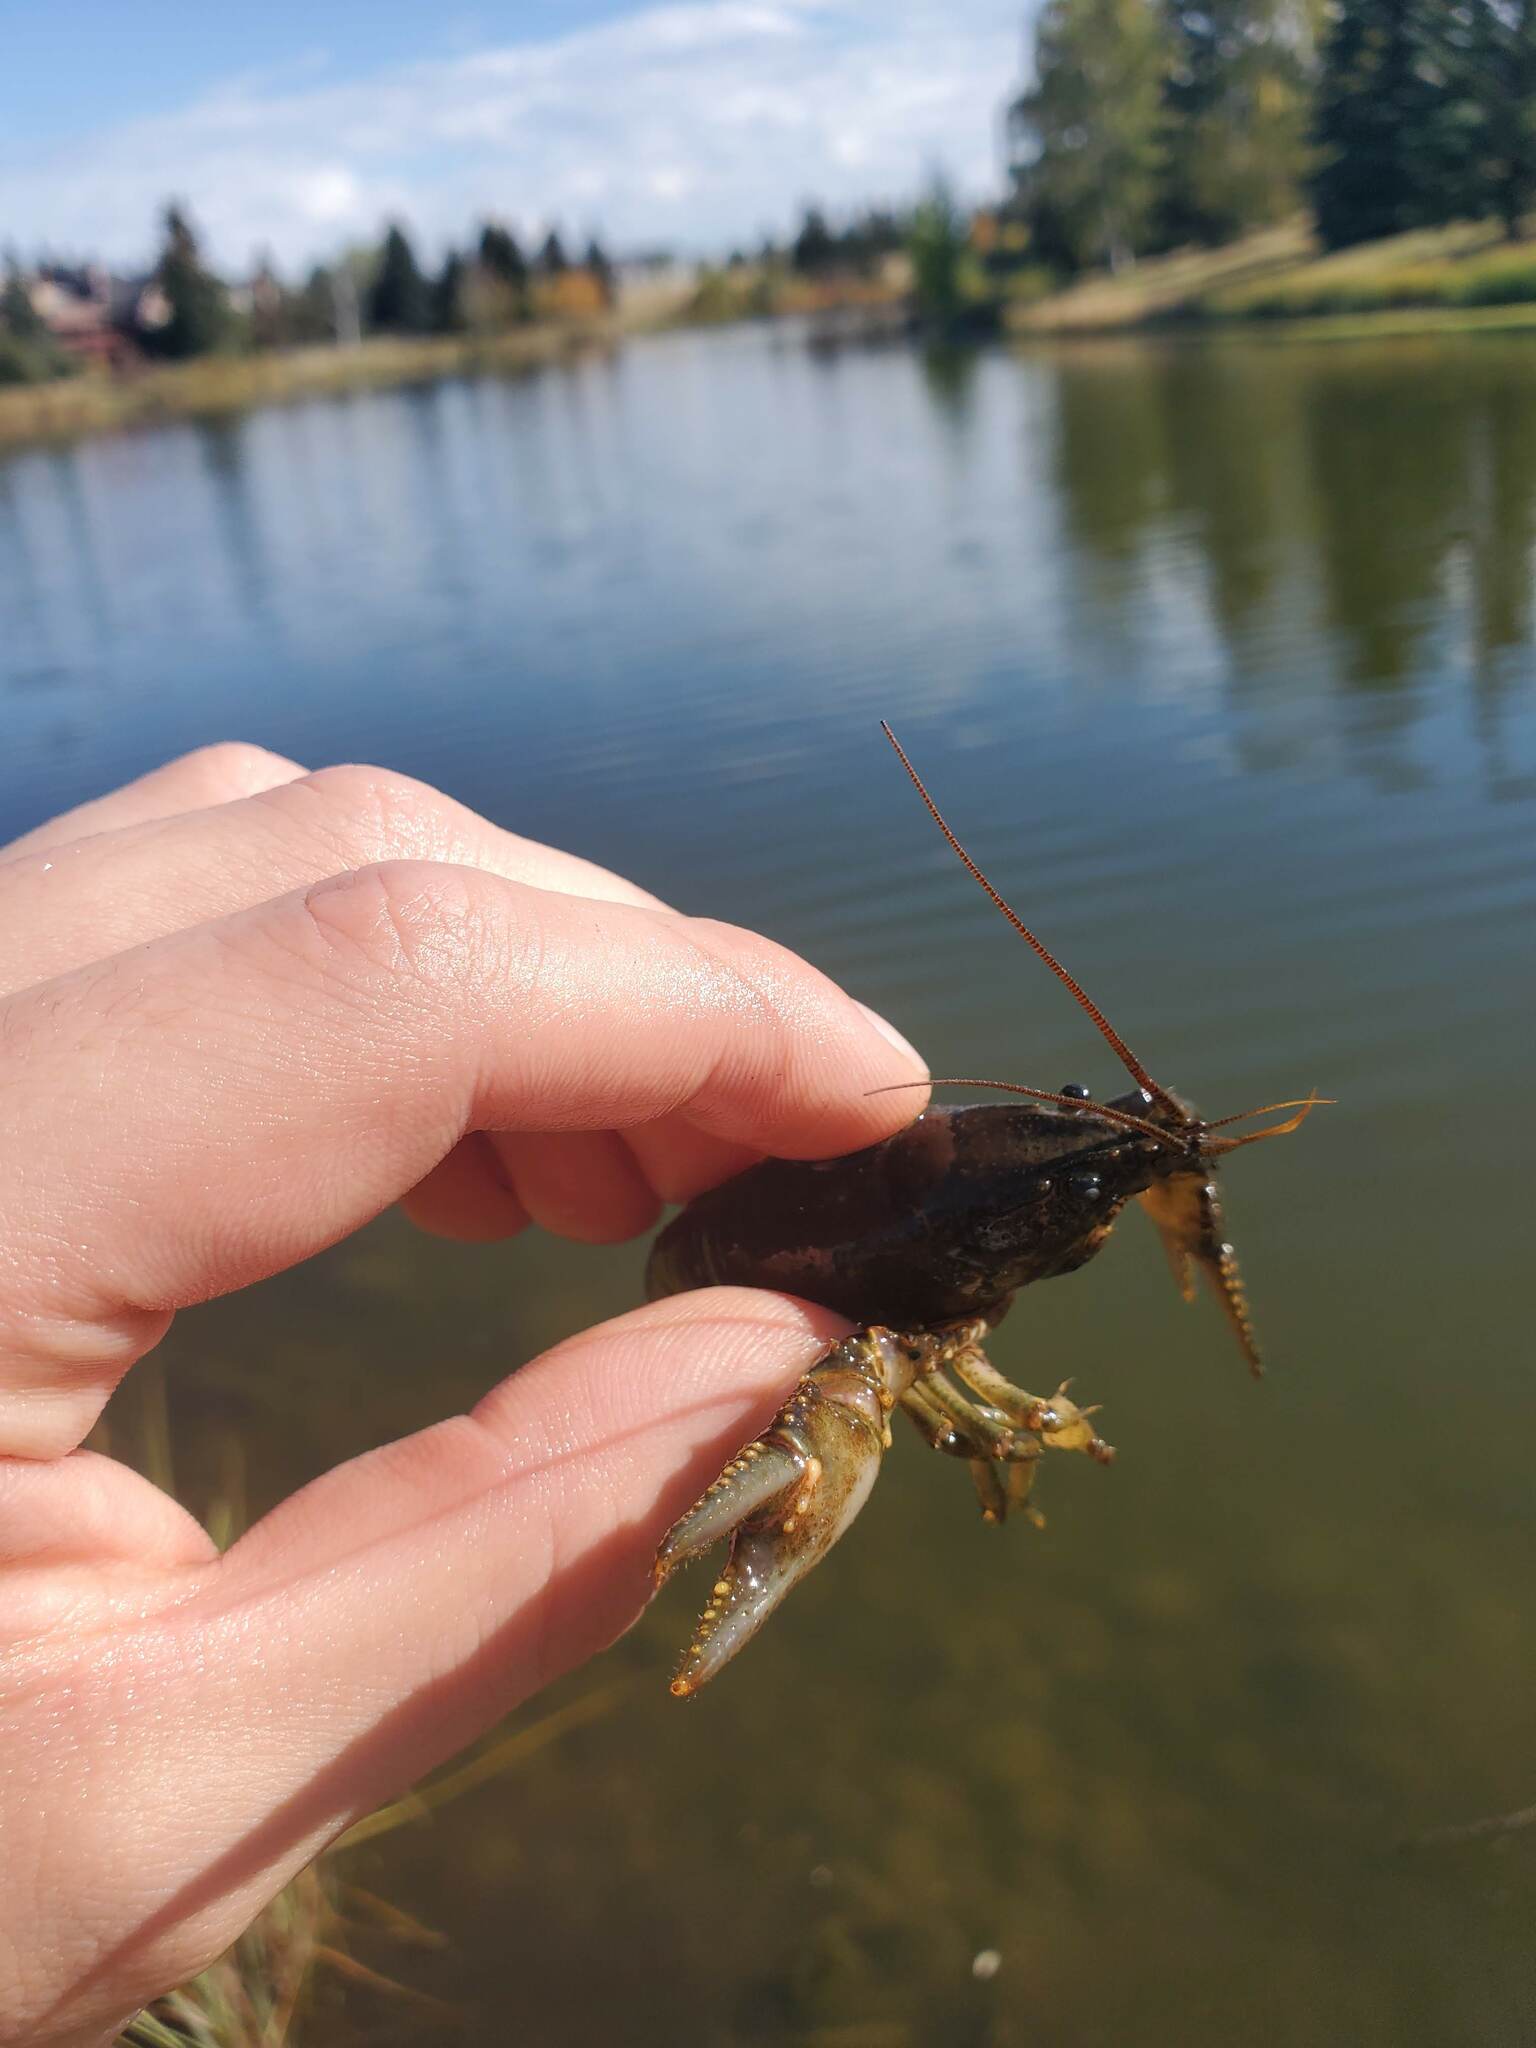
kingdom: Animalia
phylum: Arthropoda
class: Malacostraca
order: Decapoda
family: Cambaridae
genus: Faxonius
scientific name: Faxonius virilis
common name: Virile crayfish
